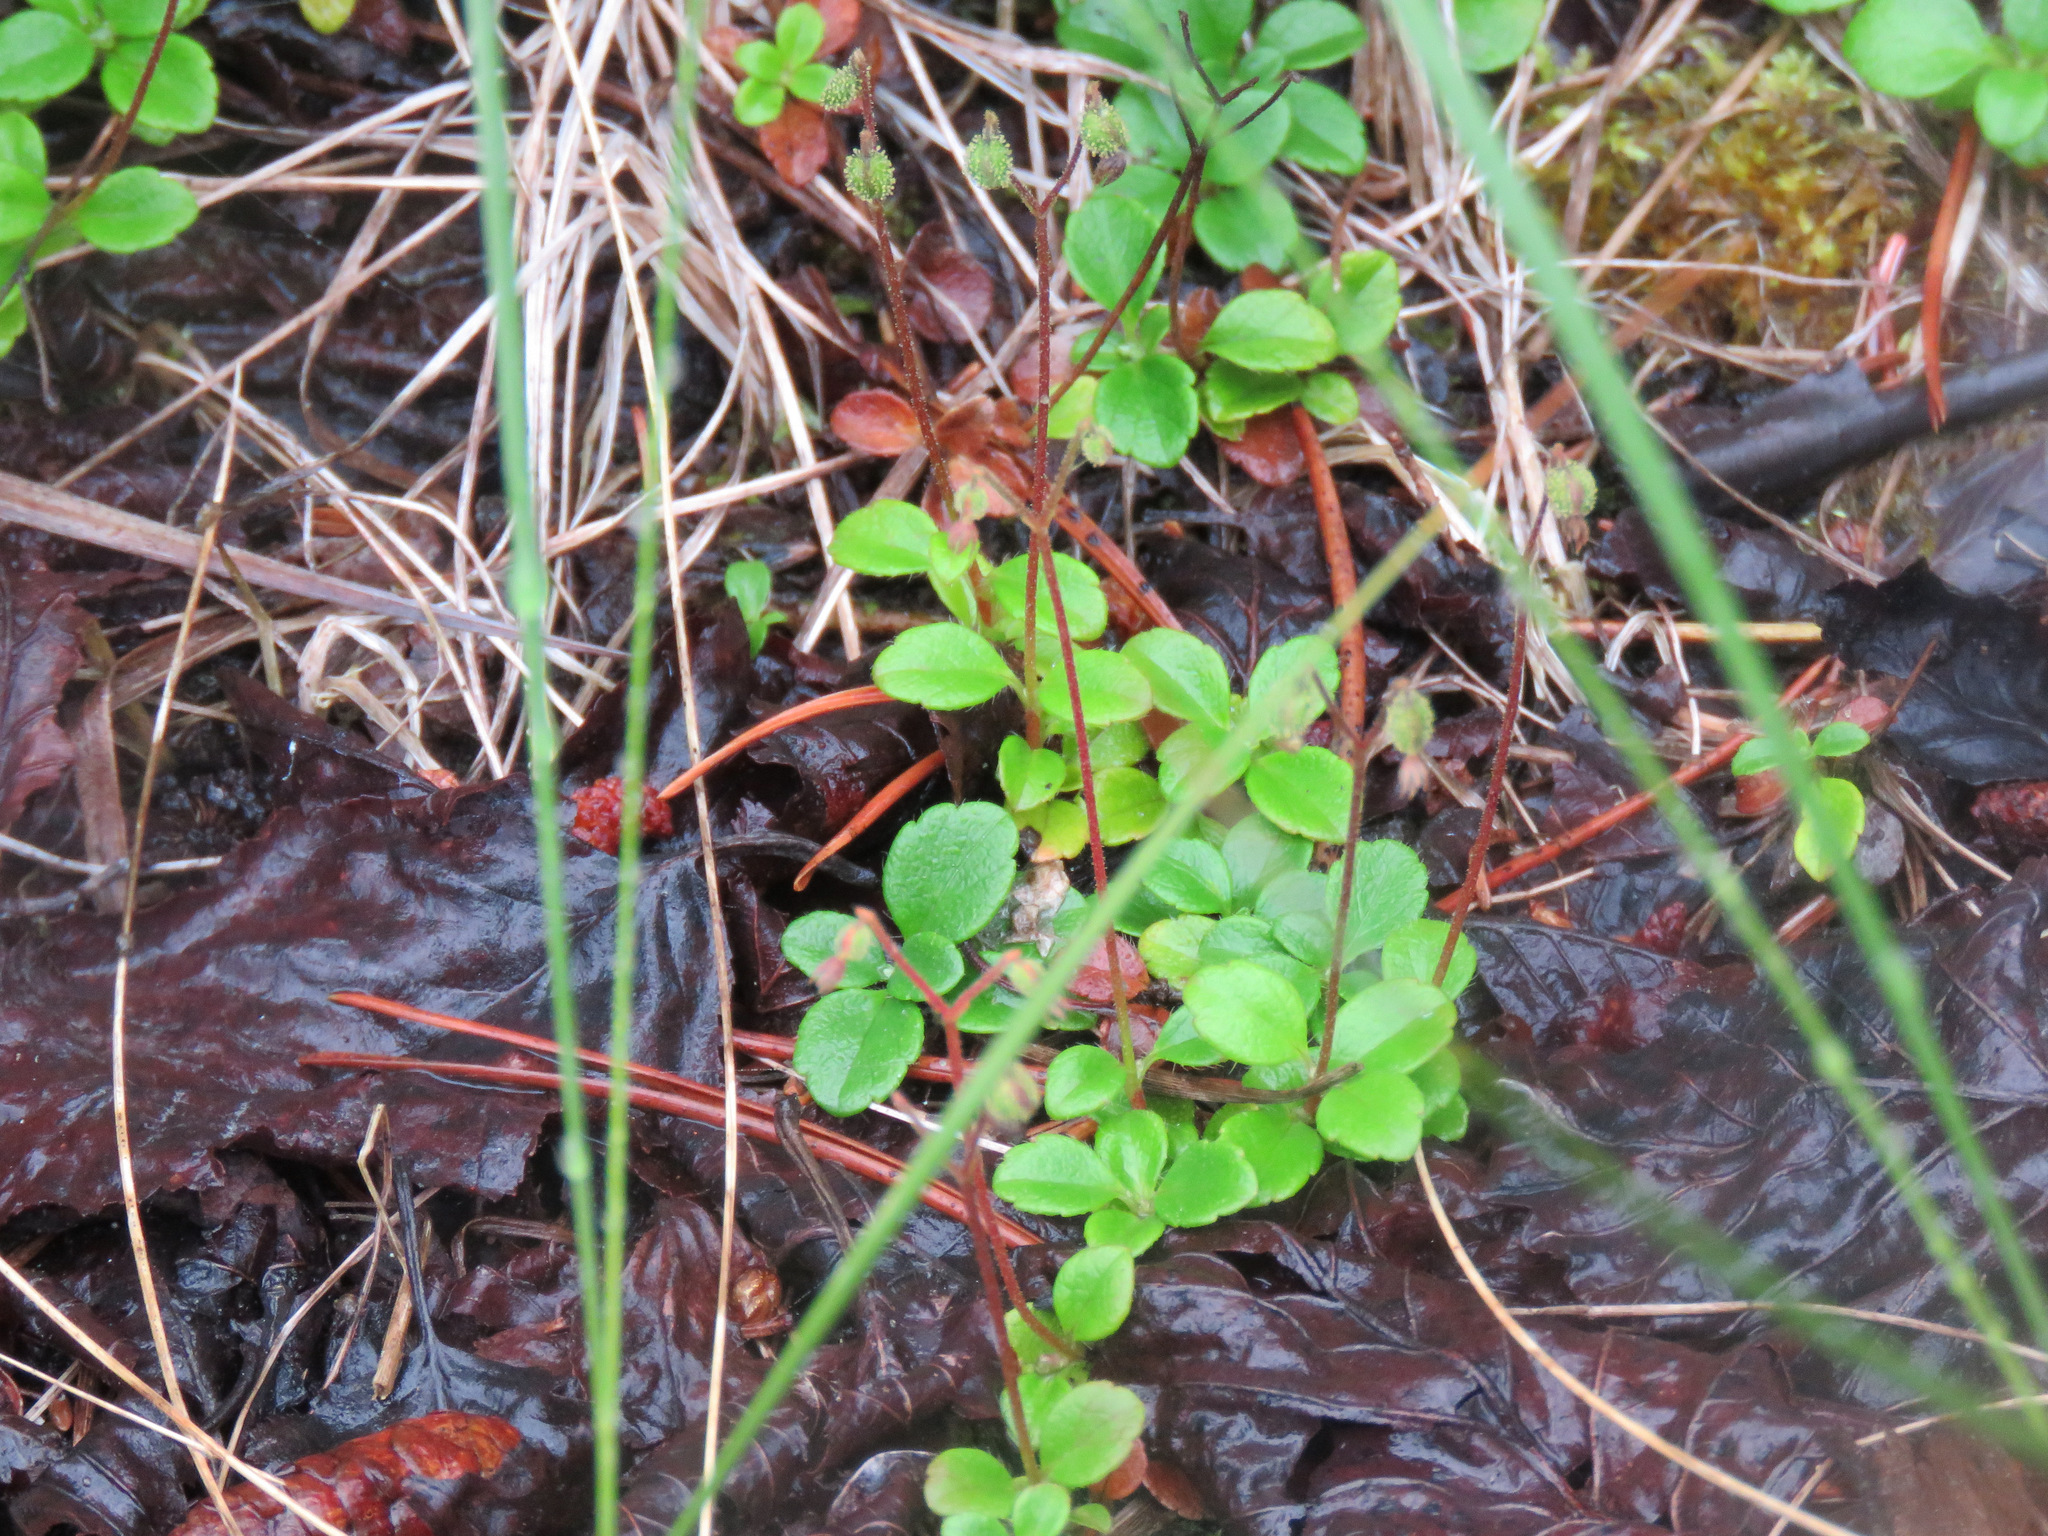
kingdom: Plantae
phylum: Tracheophyta
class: Magnoliopsida
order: Dipsacales
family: Caprifoliaceae
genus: Linnaea
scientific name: Linnaea borealis
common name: Twinflower
